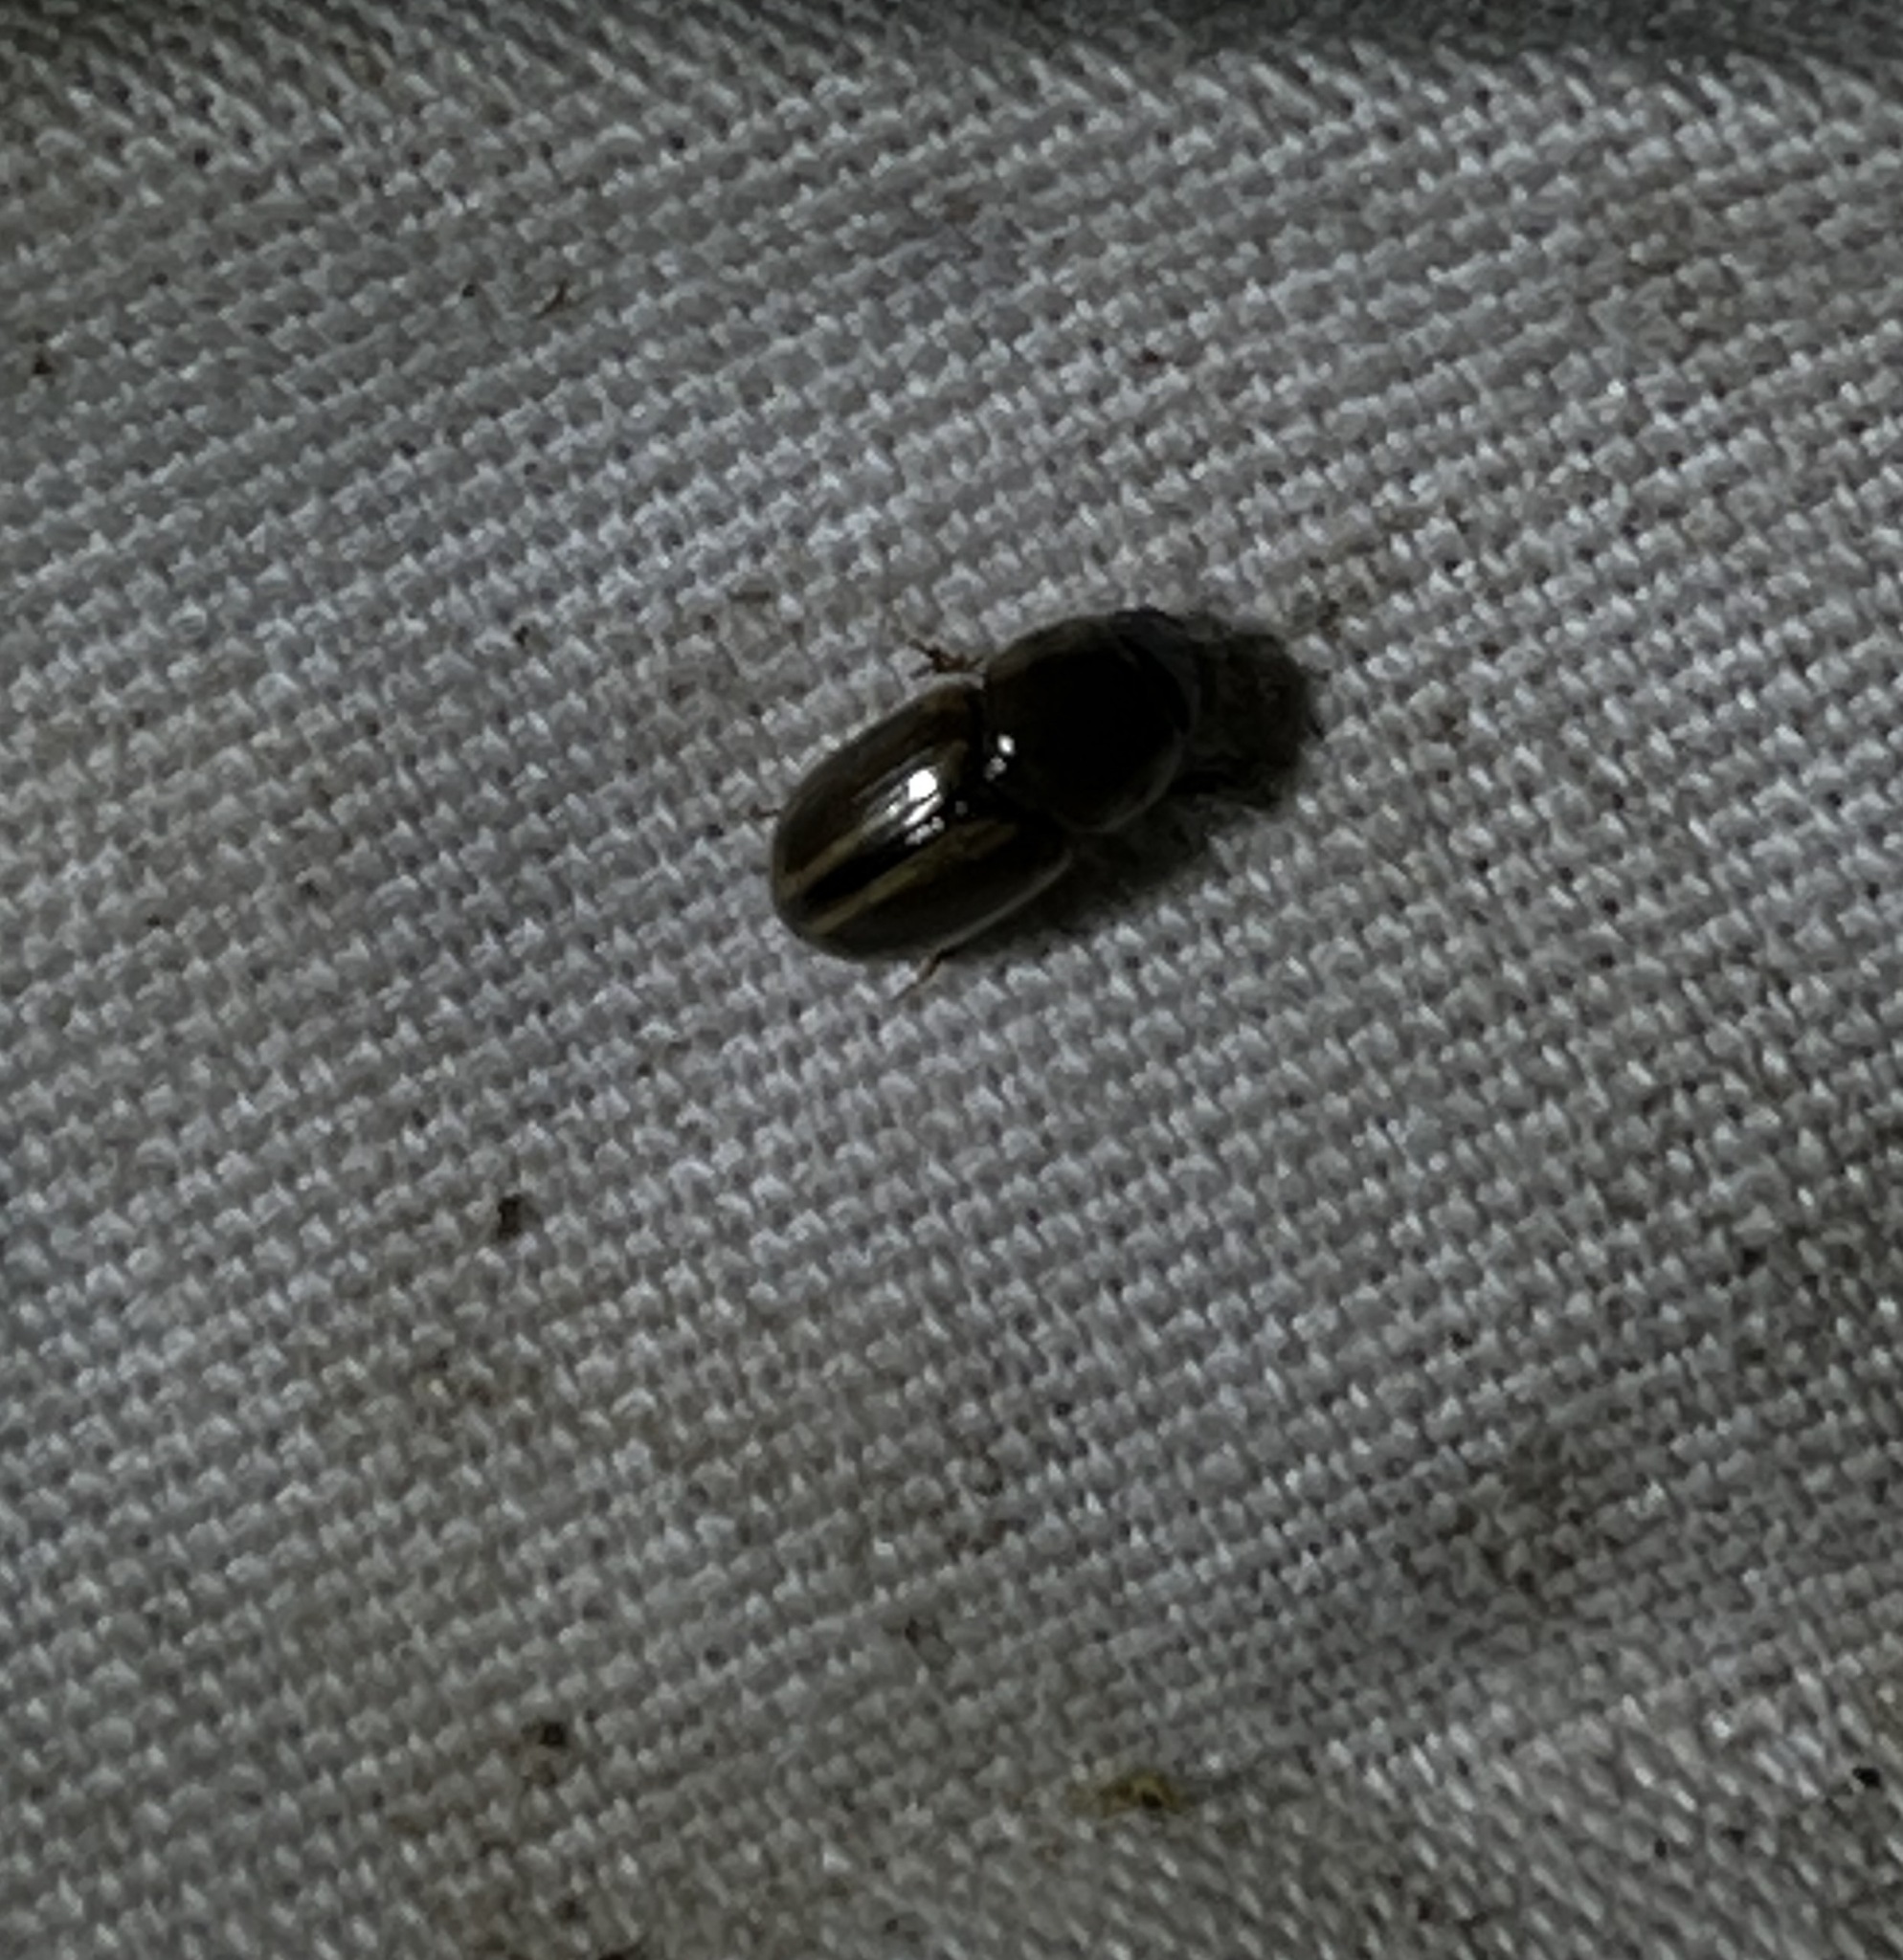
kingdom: Animalia
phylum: Arthropoda
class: Insecta
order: Coleoptera
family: Scarabaeidae
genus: Labarrus
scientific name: Labarrus lividus
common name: Scarab beetle
